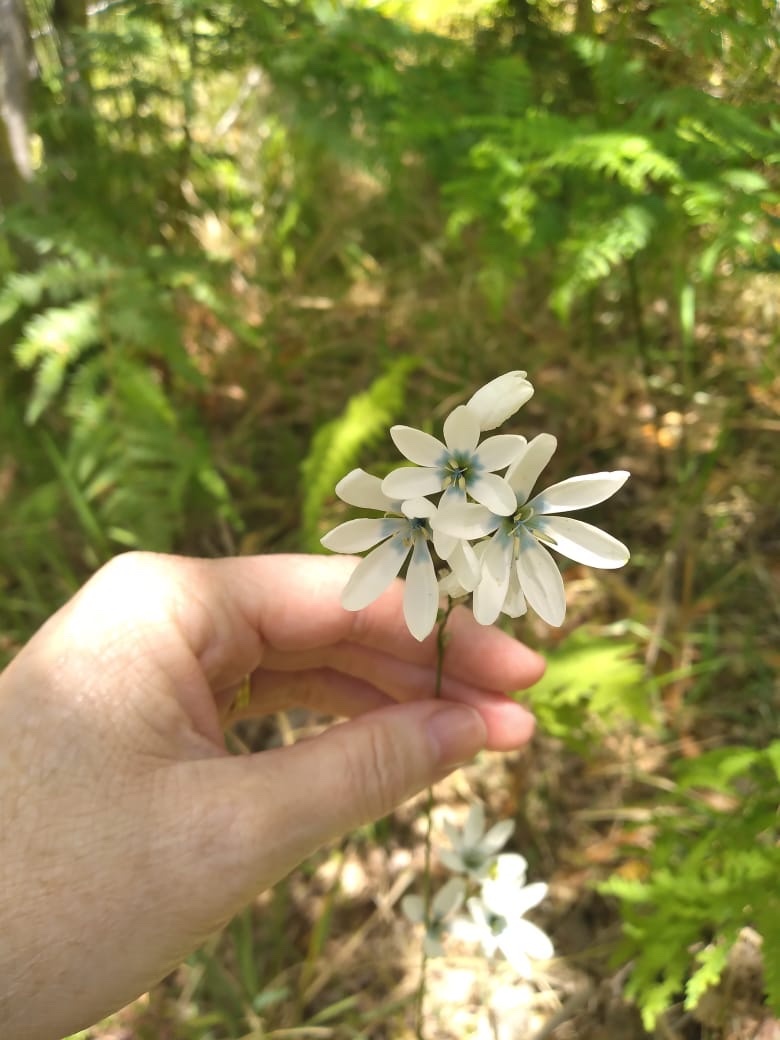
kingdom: Plantae
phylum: Tracheophyta
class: Liliopsida
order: Asparagales
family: Iridaceae
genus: Ixia
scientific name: Ixia polystachya
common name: White-and-yellow-flower cornlily
